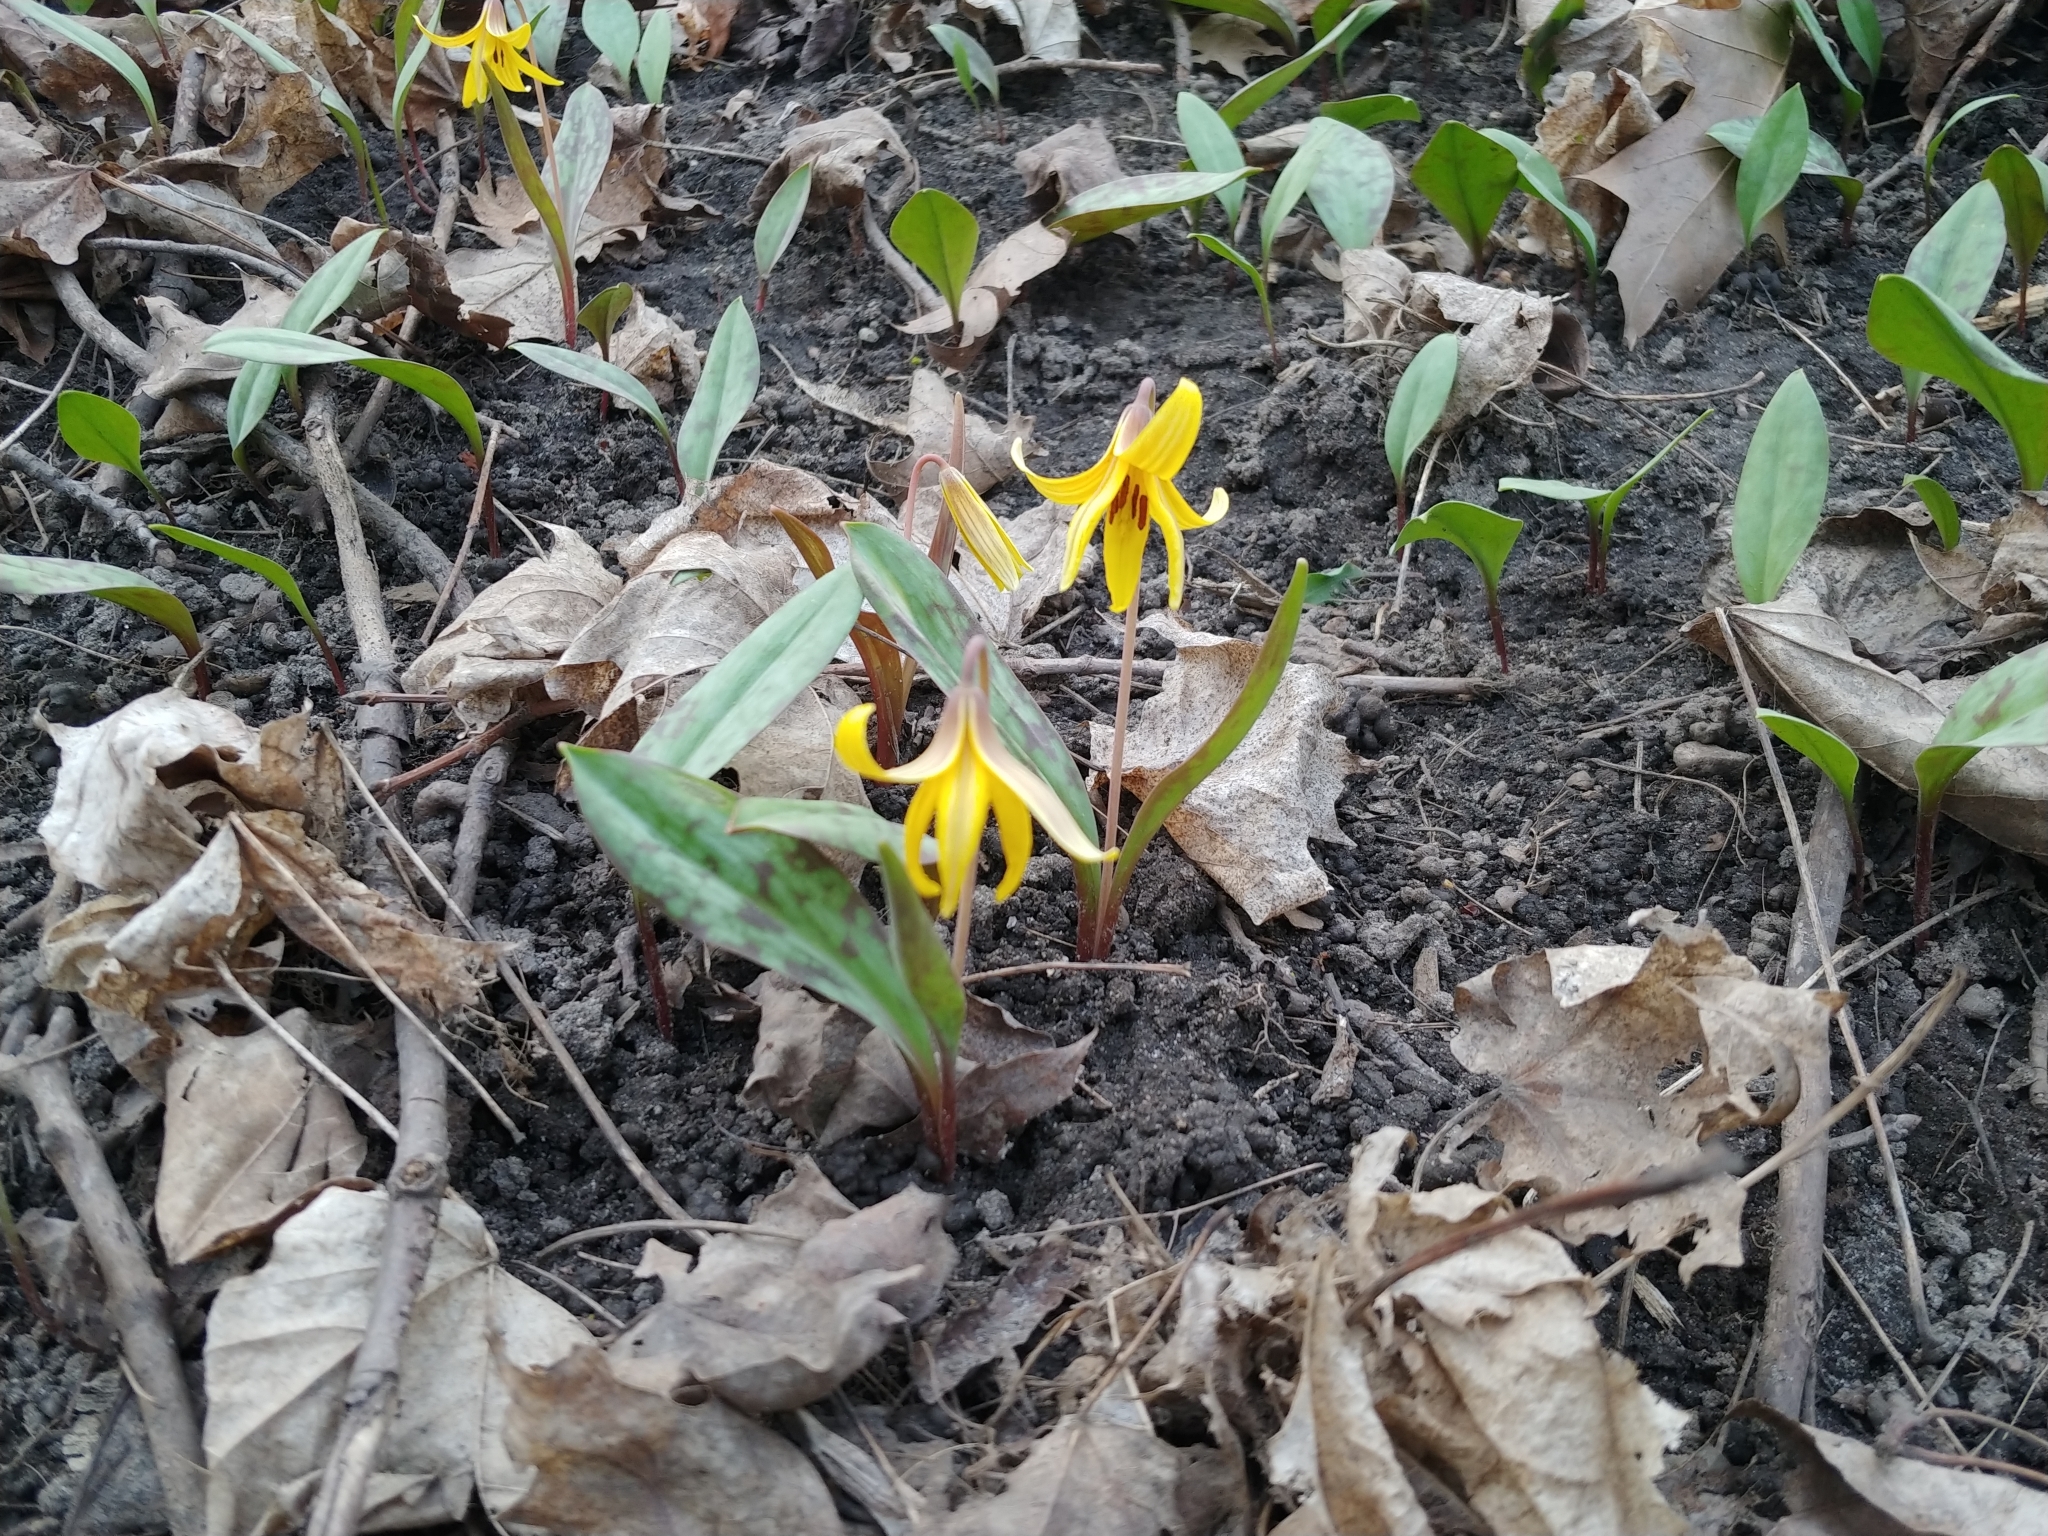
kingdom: Plantae
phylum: Tracheophyta
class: Liliopsida
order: Liliales
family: Liliaceae
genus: Erythronium
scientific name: Erythronium americanum
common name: Yellow adder's-tongue
